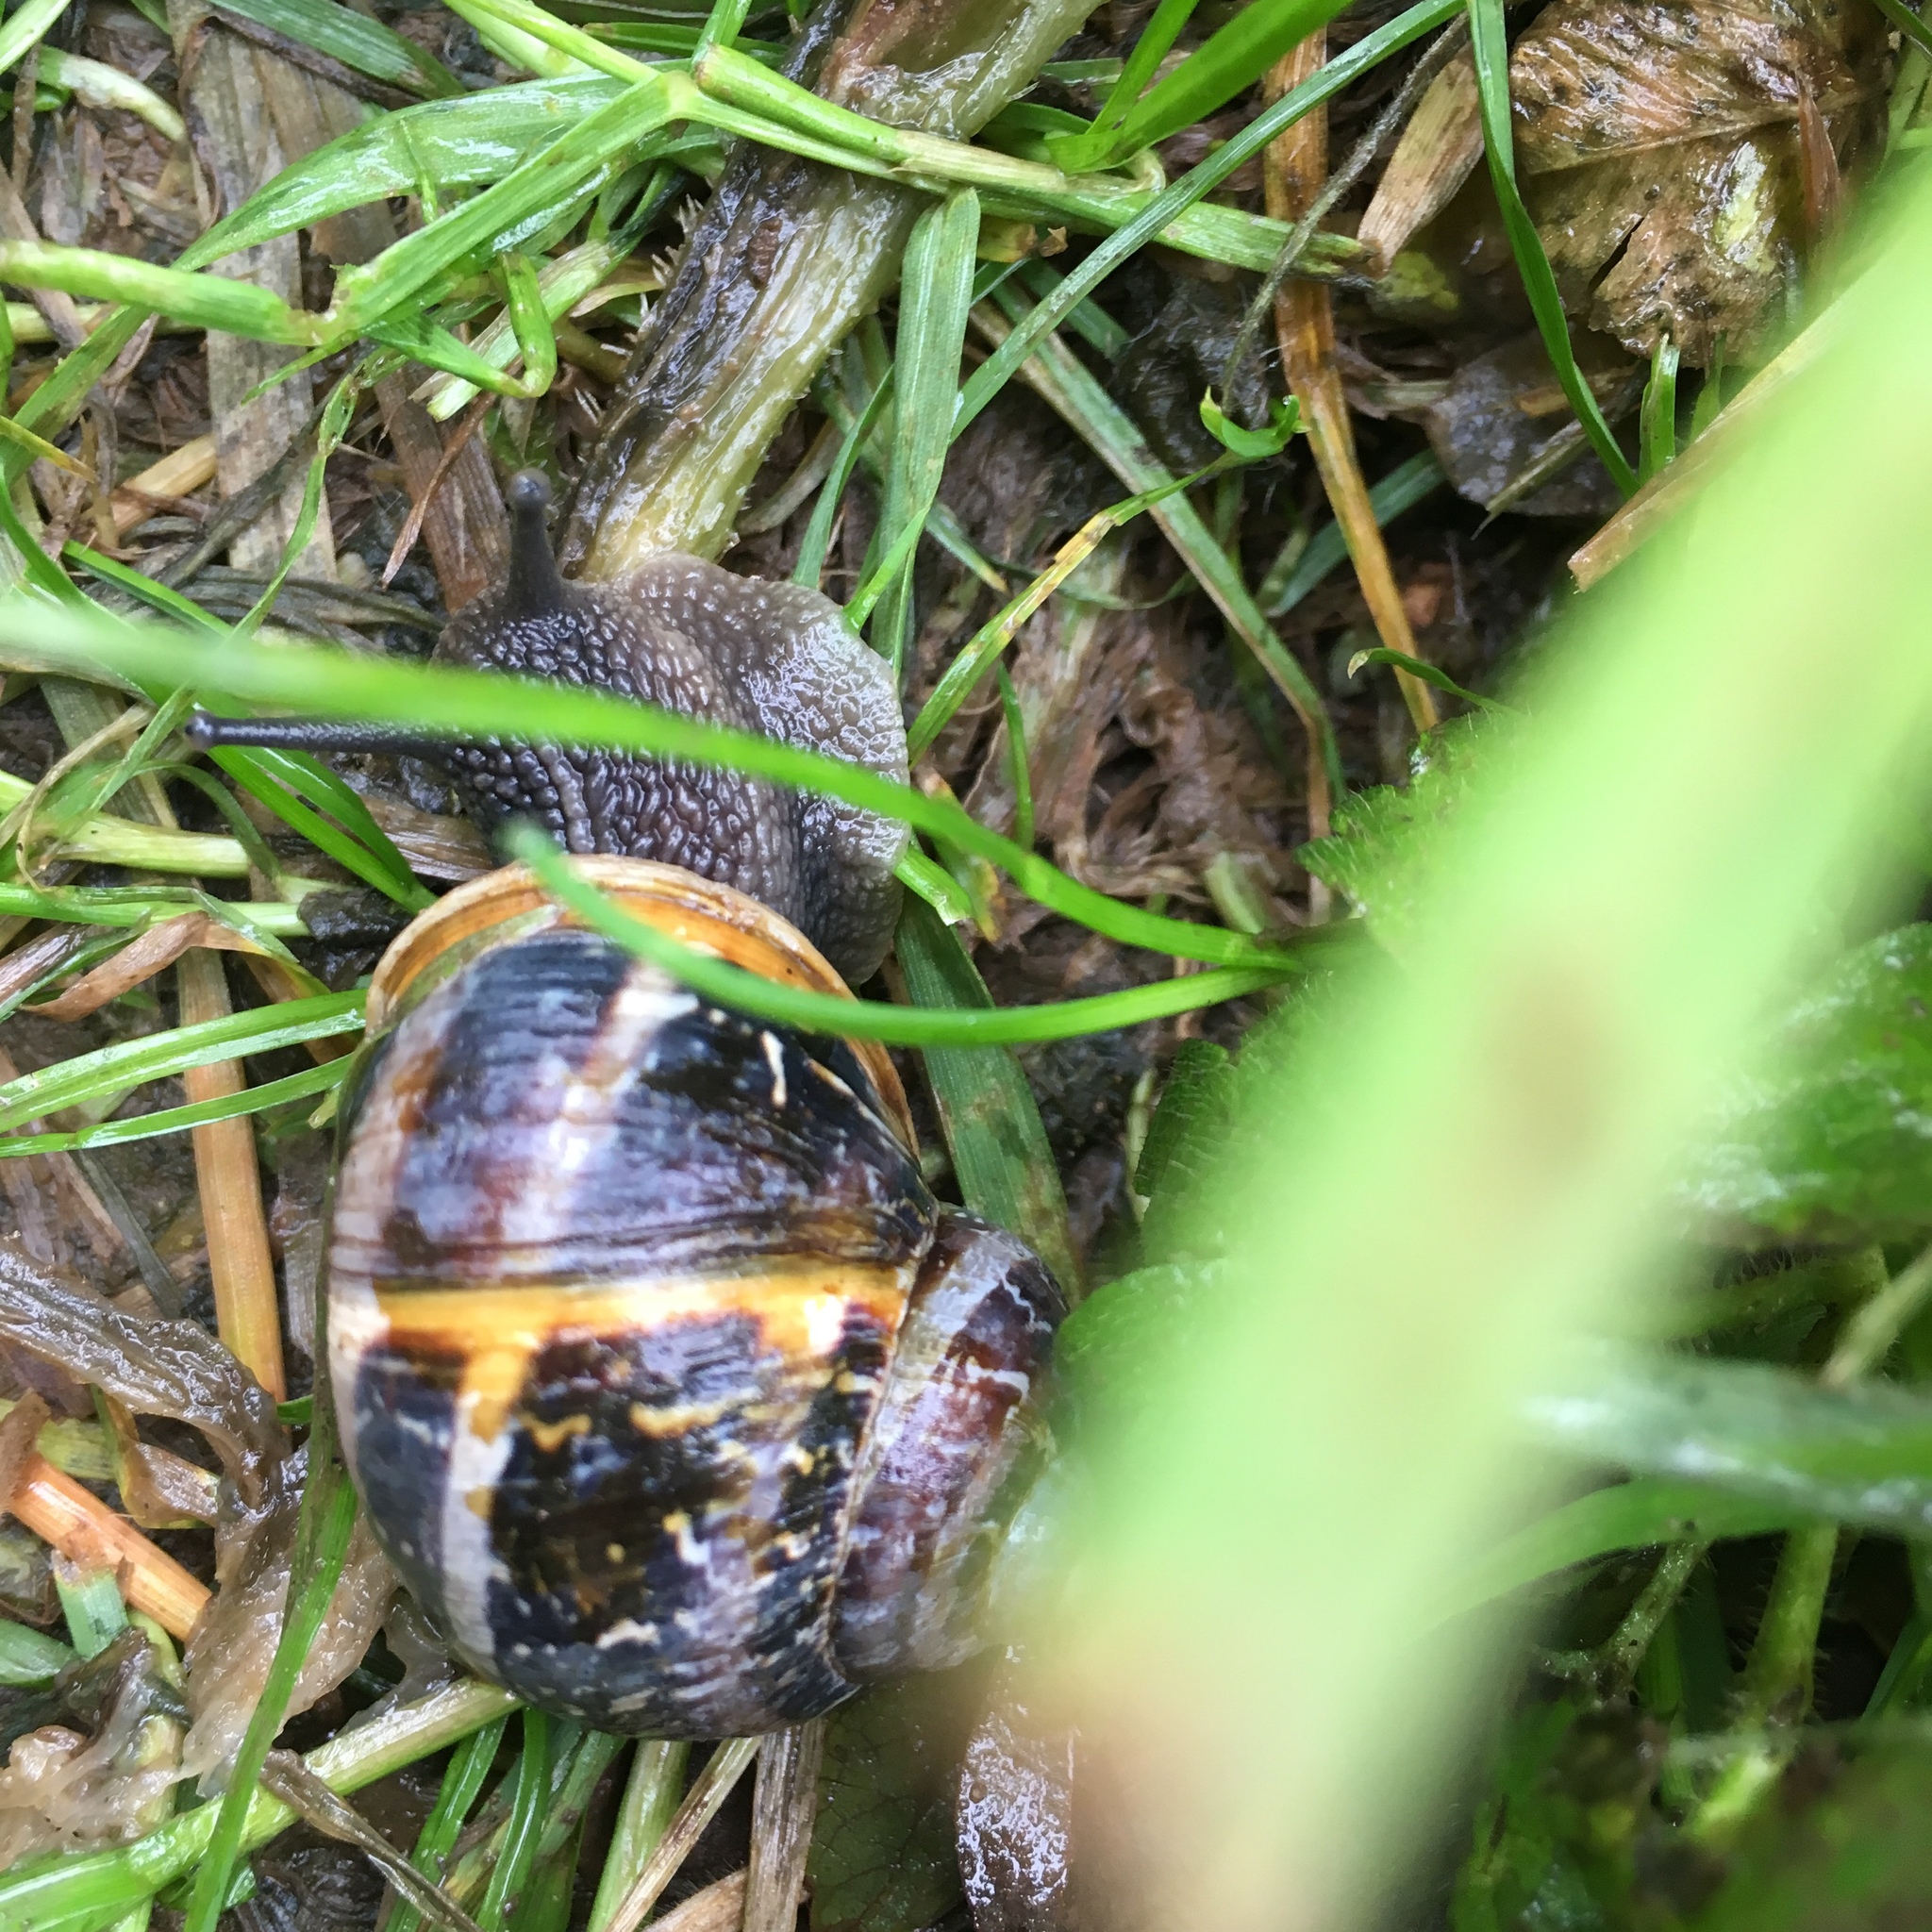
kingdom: Animalia
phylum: Mollusca
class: Gastropoda
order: Stylommatophora
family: Helicidae
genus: Cornu
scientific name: Cornu aspersum
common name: Brown garden snail
